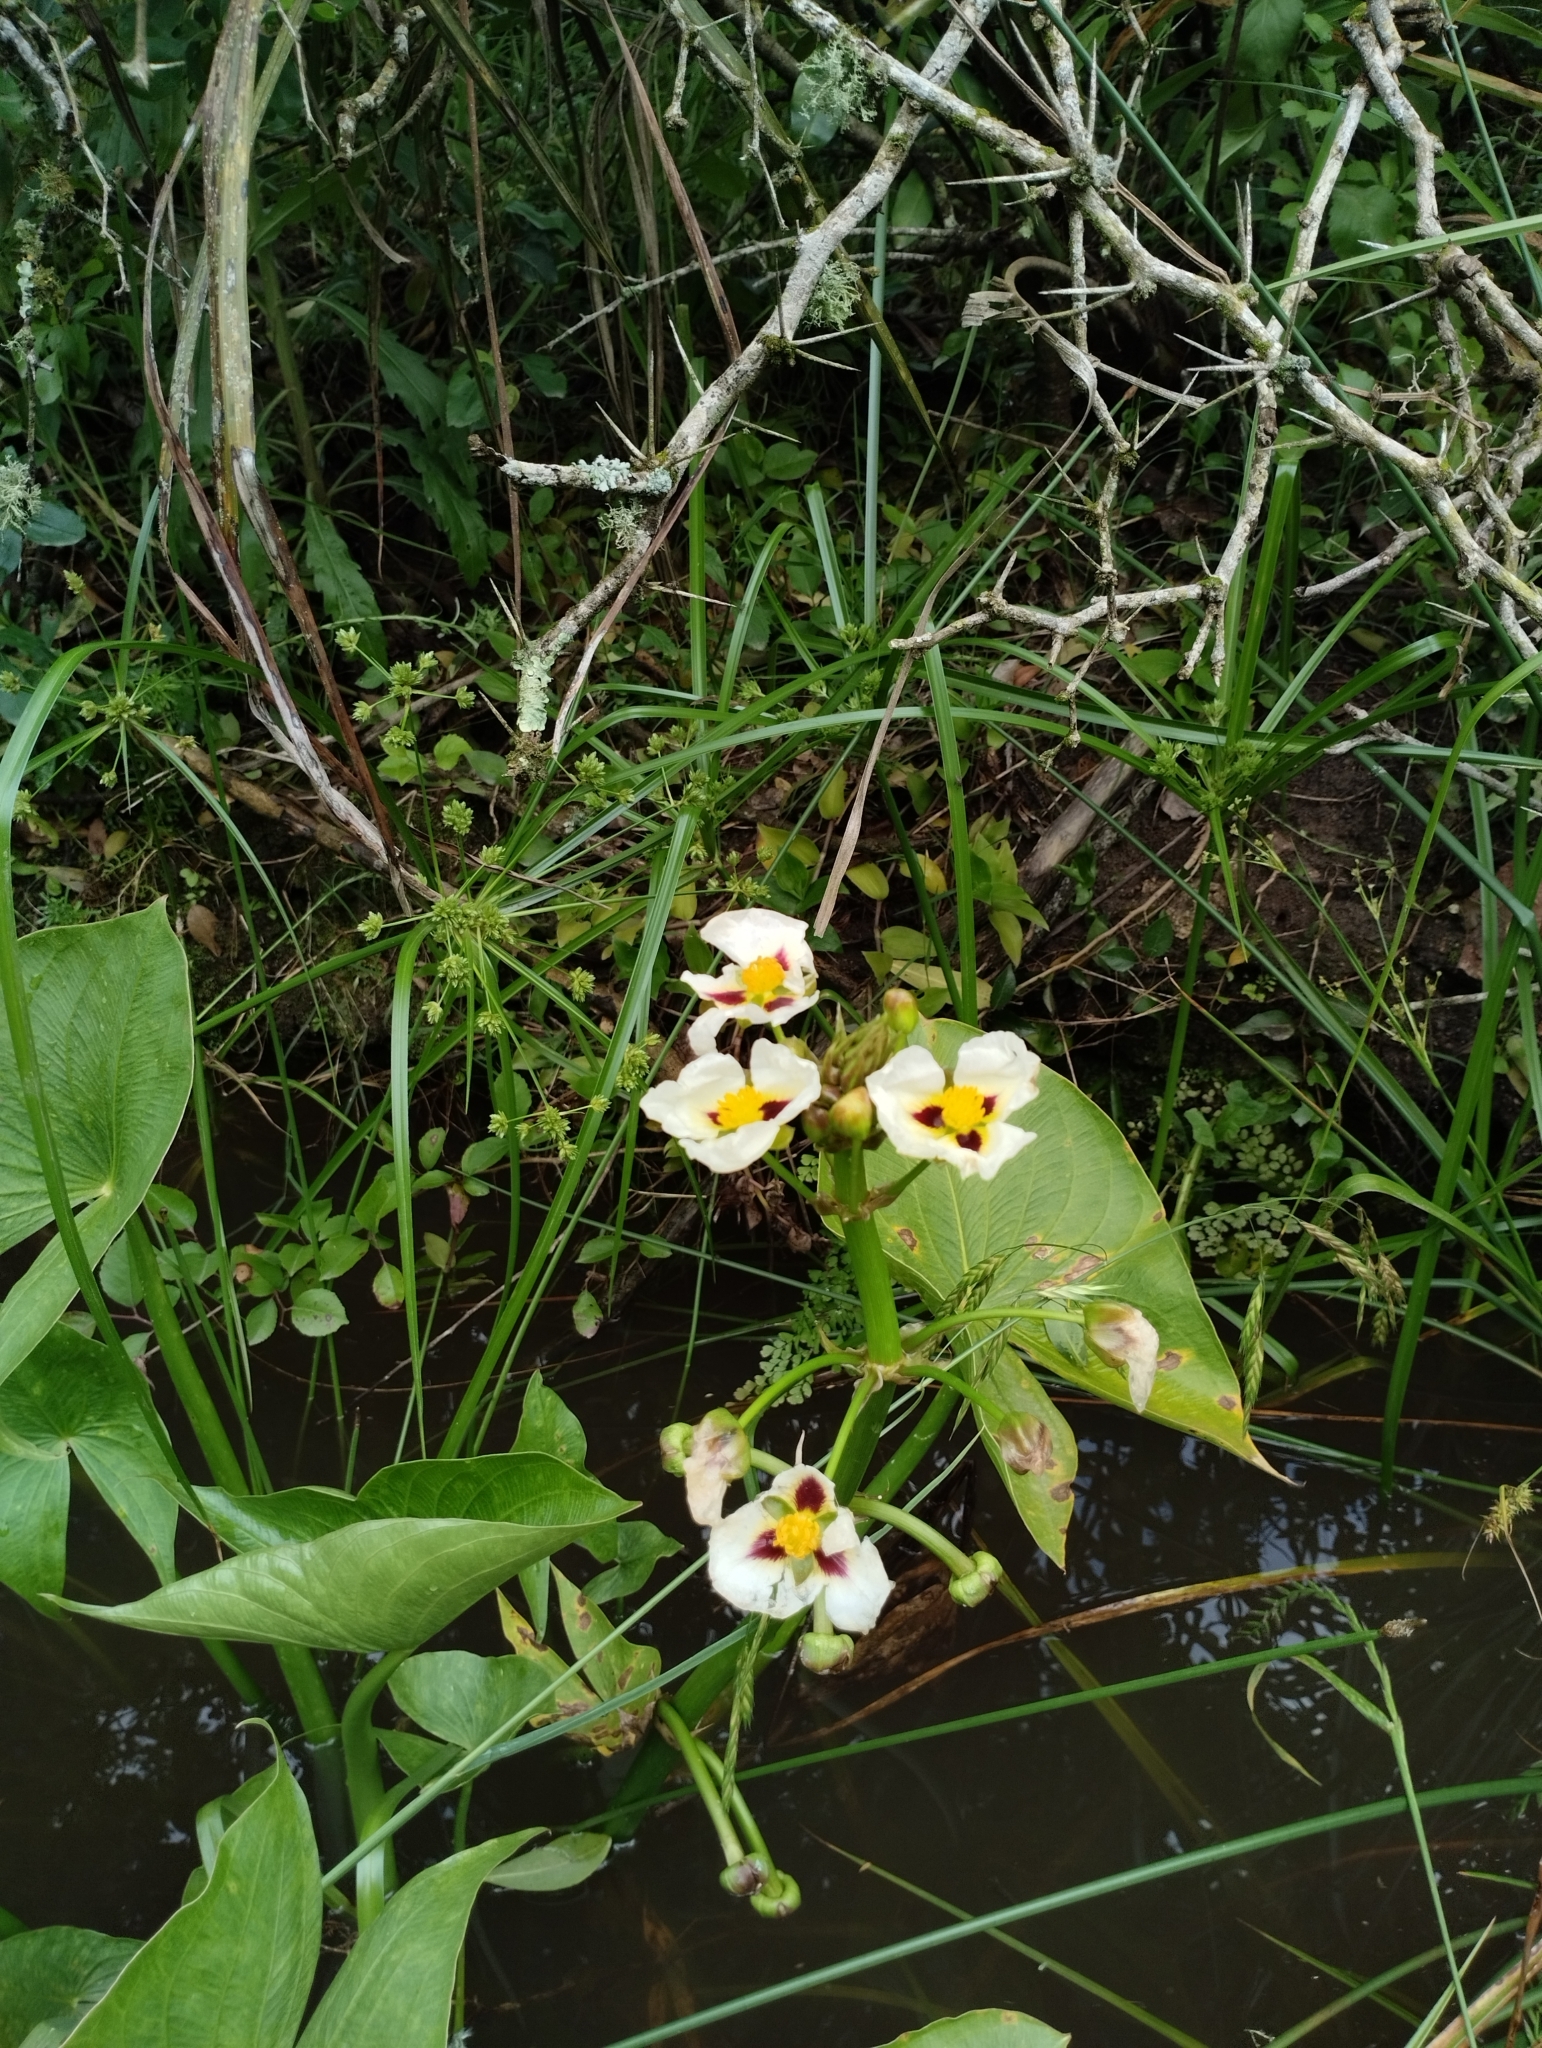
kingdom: Plantae
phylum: Tracheophyta
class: Liliopsida
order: Alismatales
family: Alismataceae
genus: Sagittaria
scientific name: Sagittaria montevidensis
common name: Giant arrowhead
